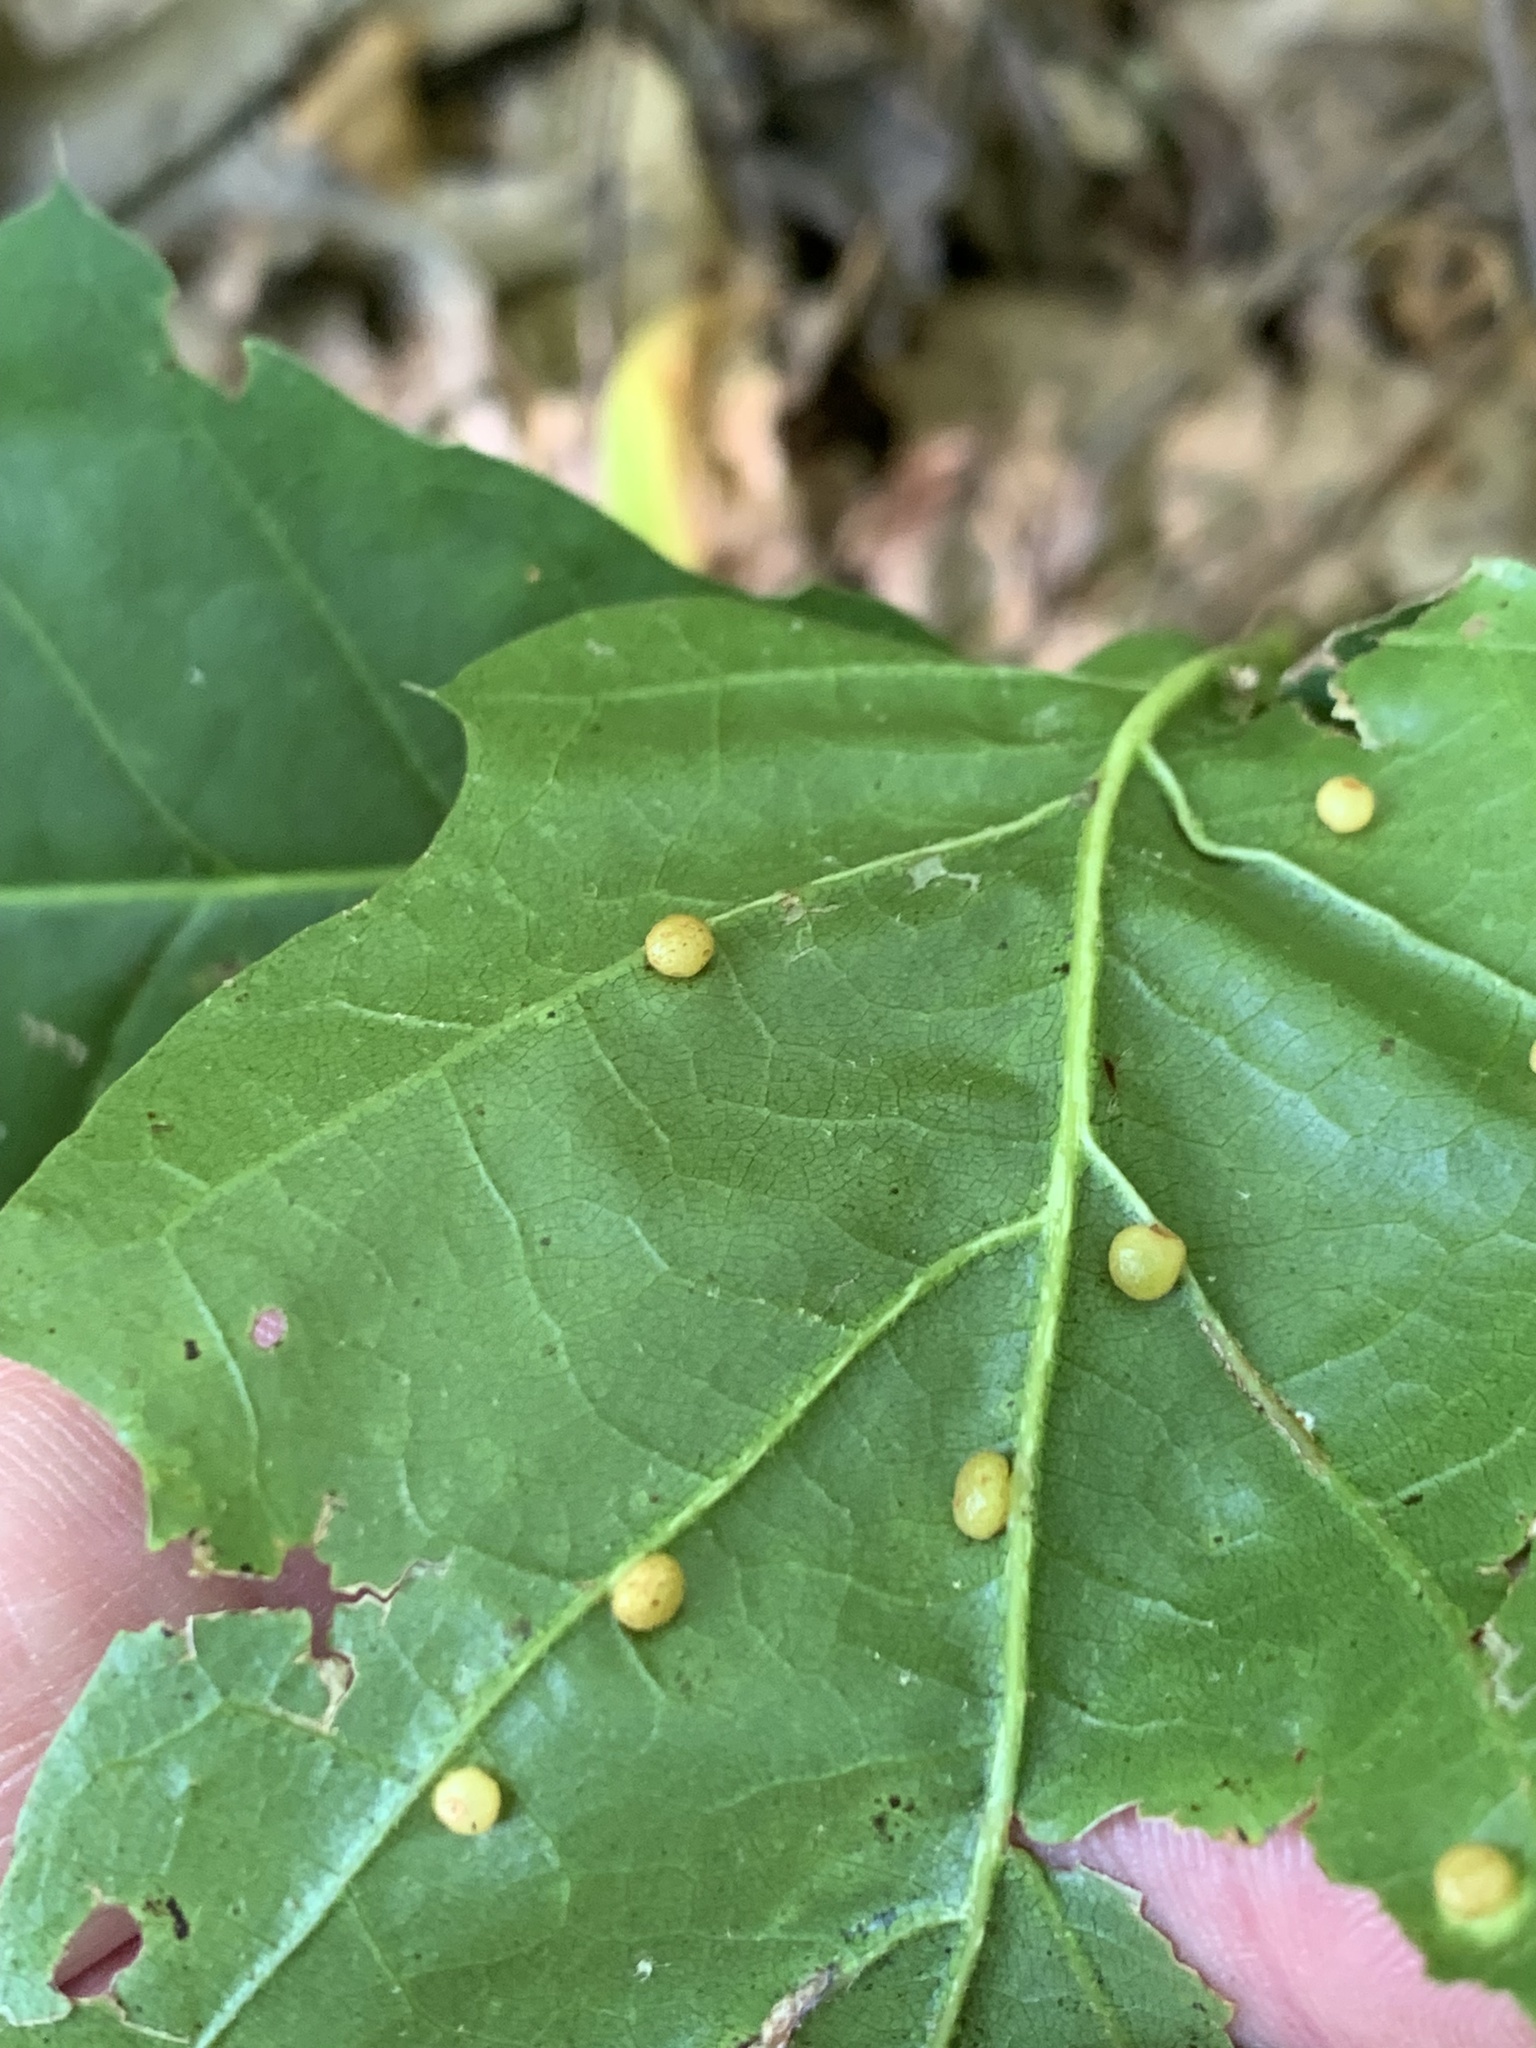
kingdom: Animalia
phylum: Arthropoda
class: Insecta
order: Diptera
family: Cecidomyiidae
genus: Polystepha
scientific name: Polystepha globosa
